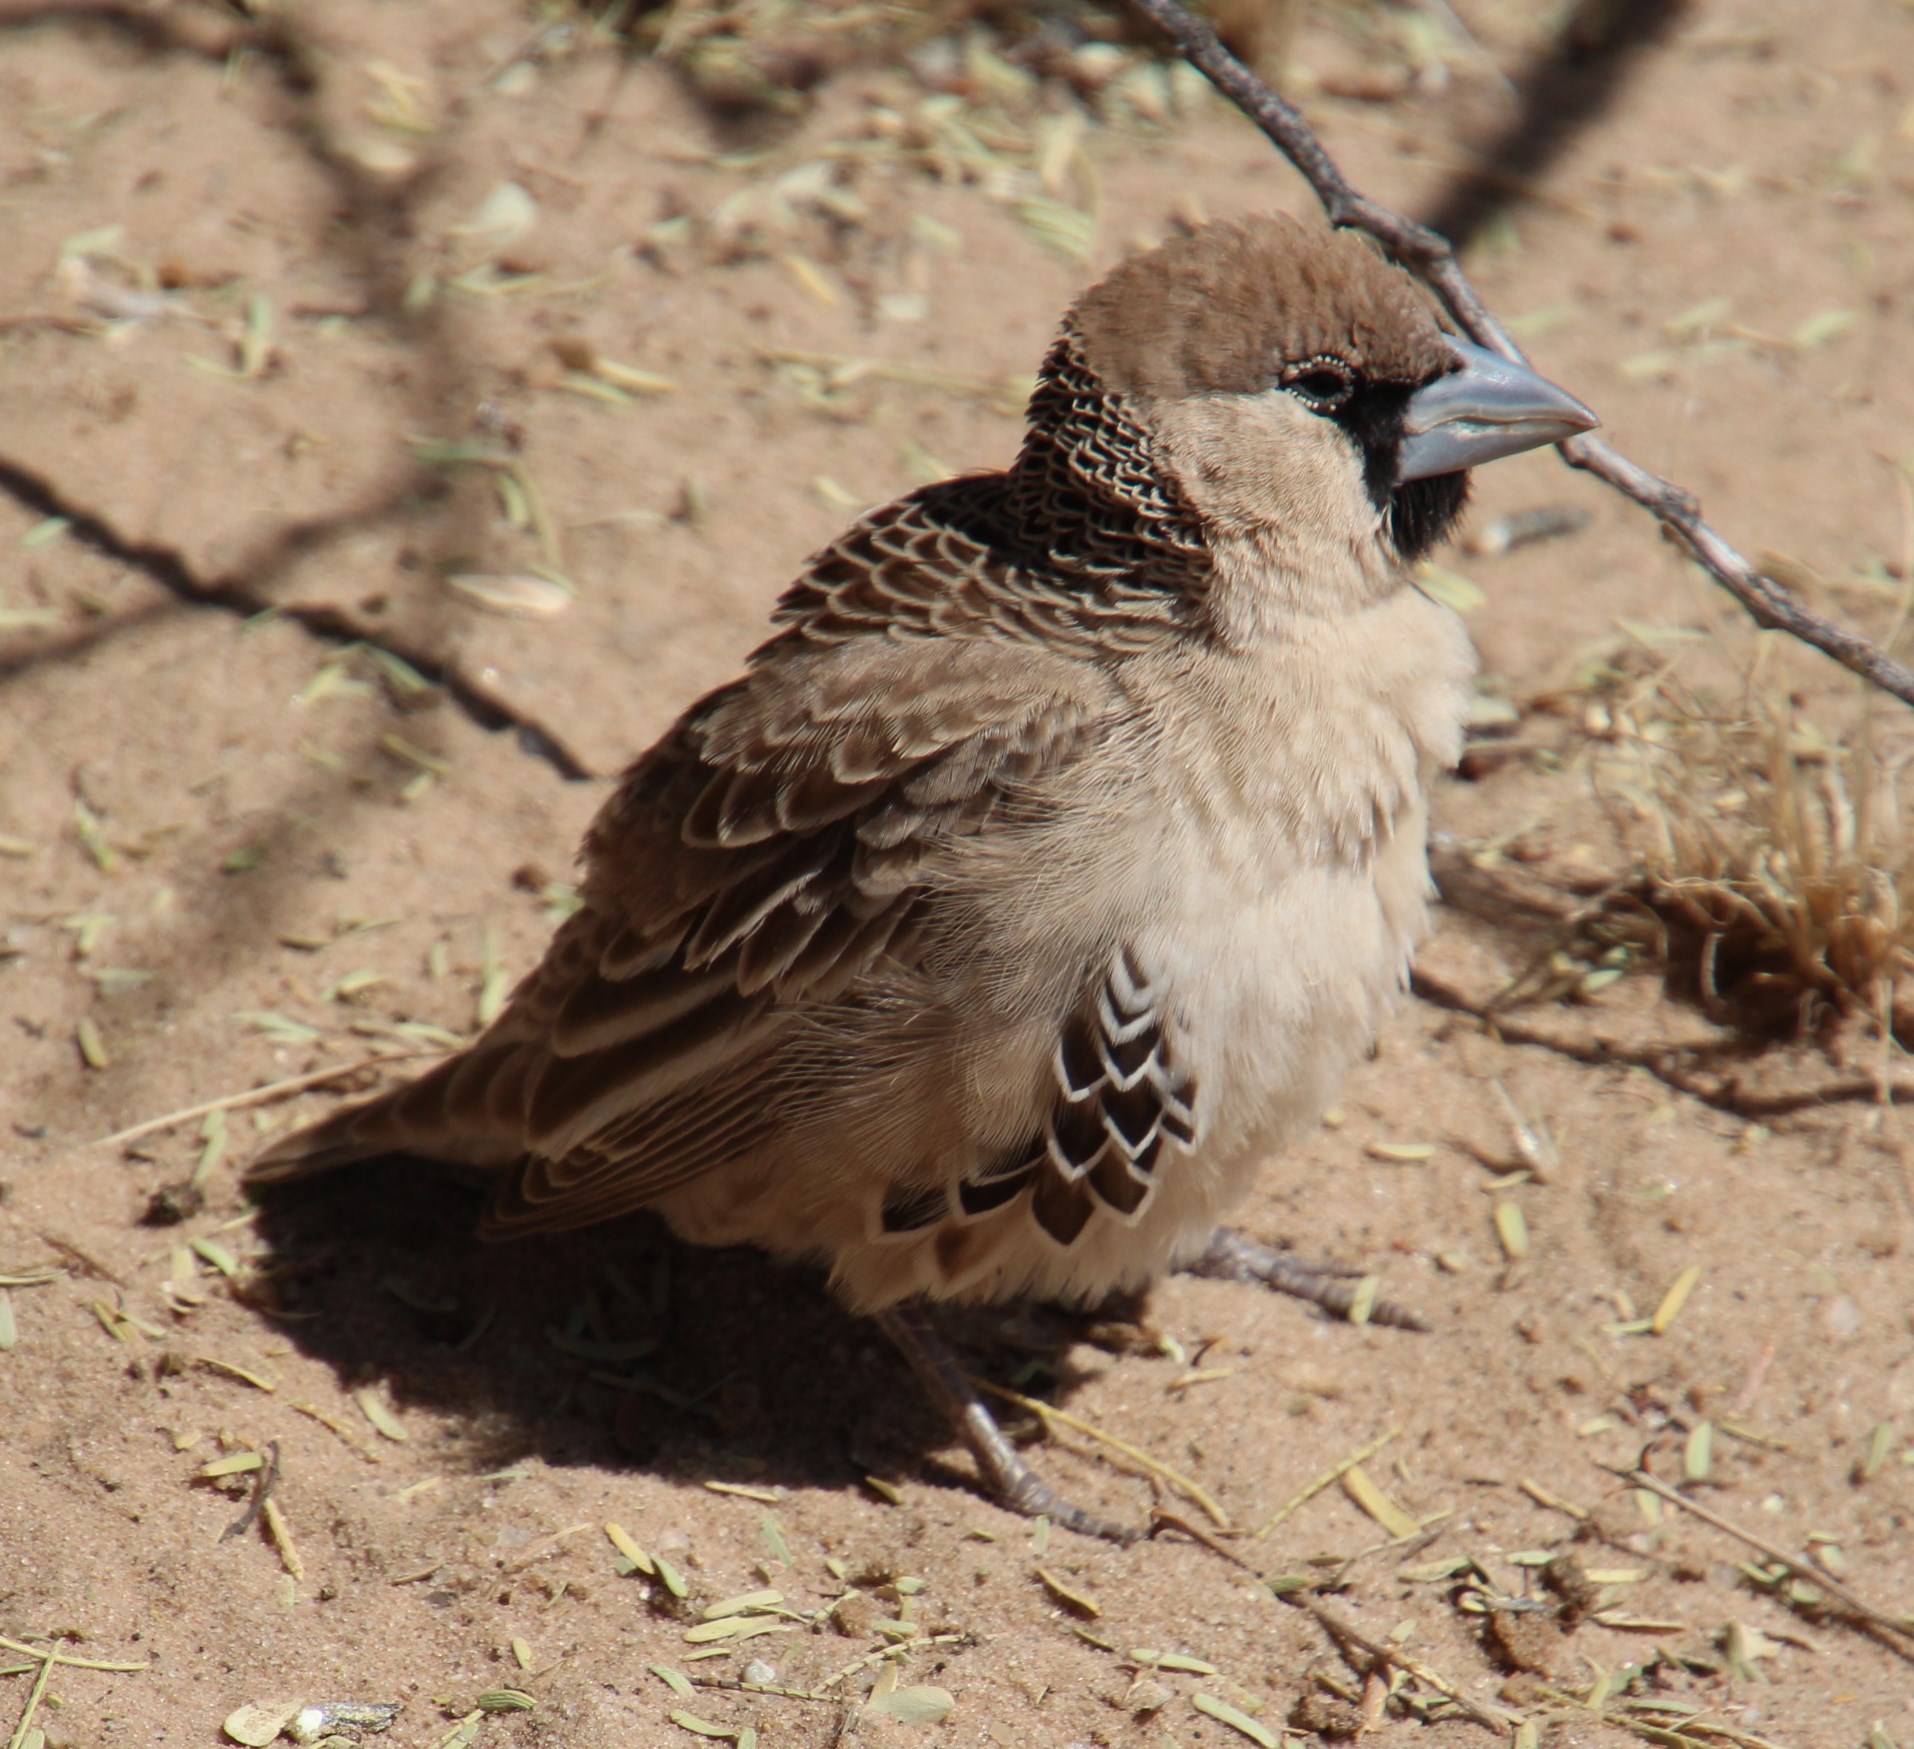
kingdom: Animalia
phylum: Chordata
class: Aves
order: Passeriformes
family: Passeridae
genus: Philetairus
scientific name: Philetairus socius
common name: Sociable weaver
